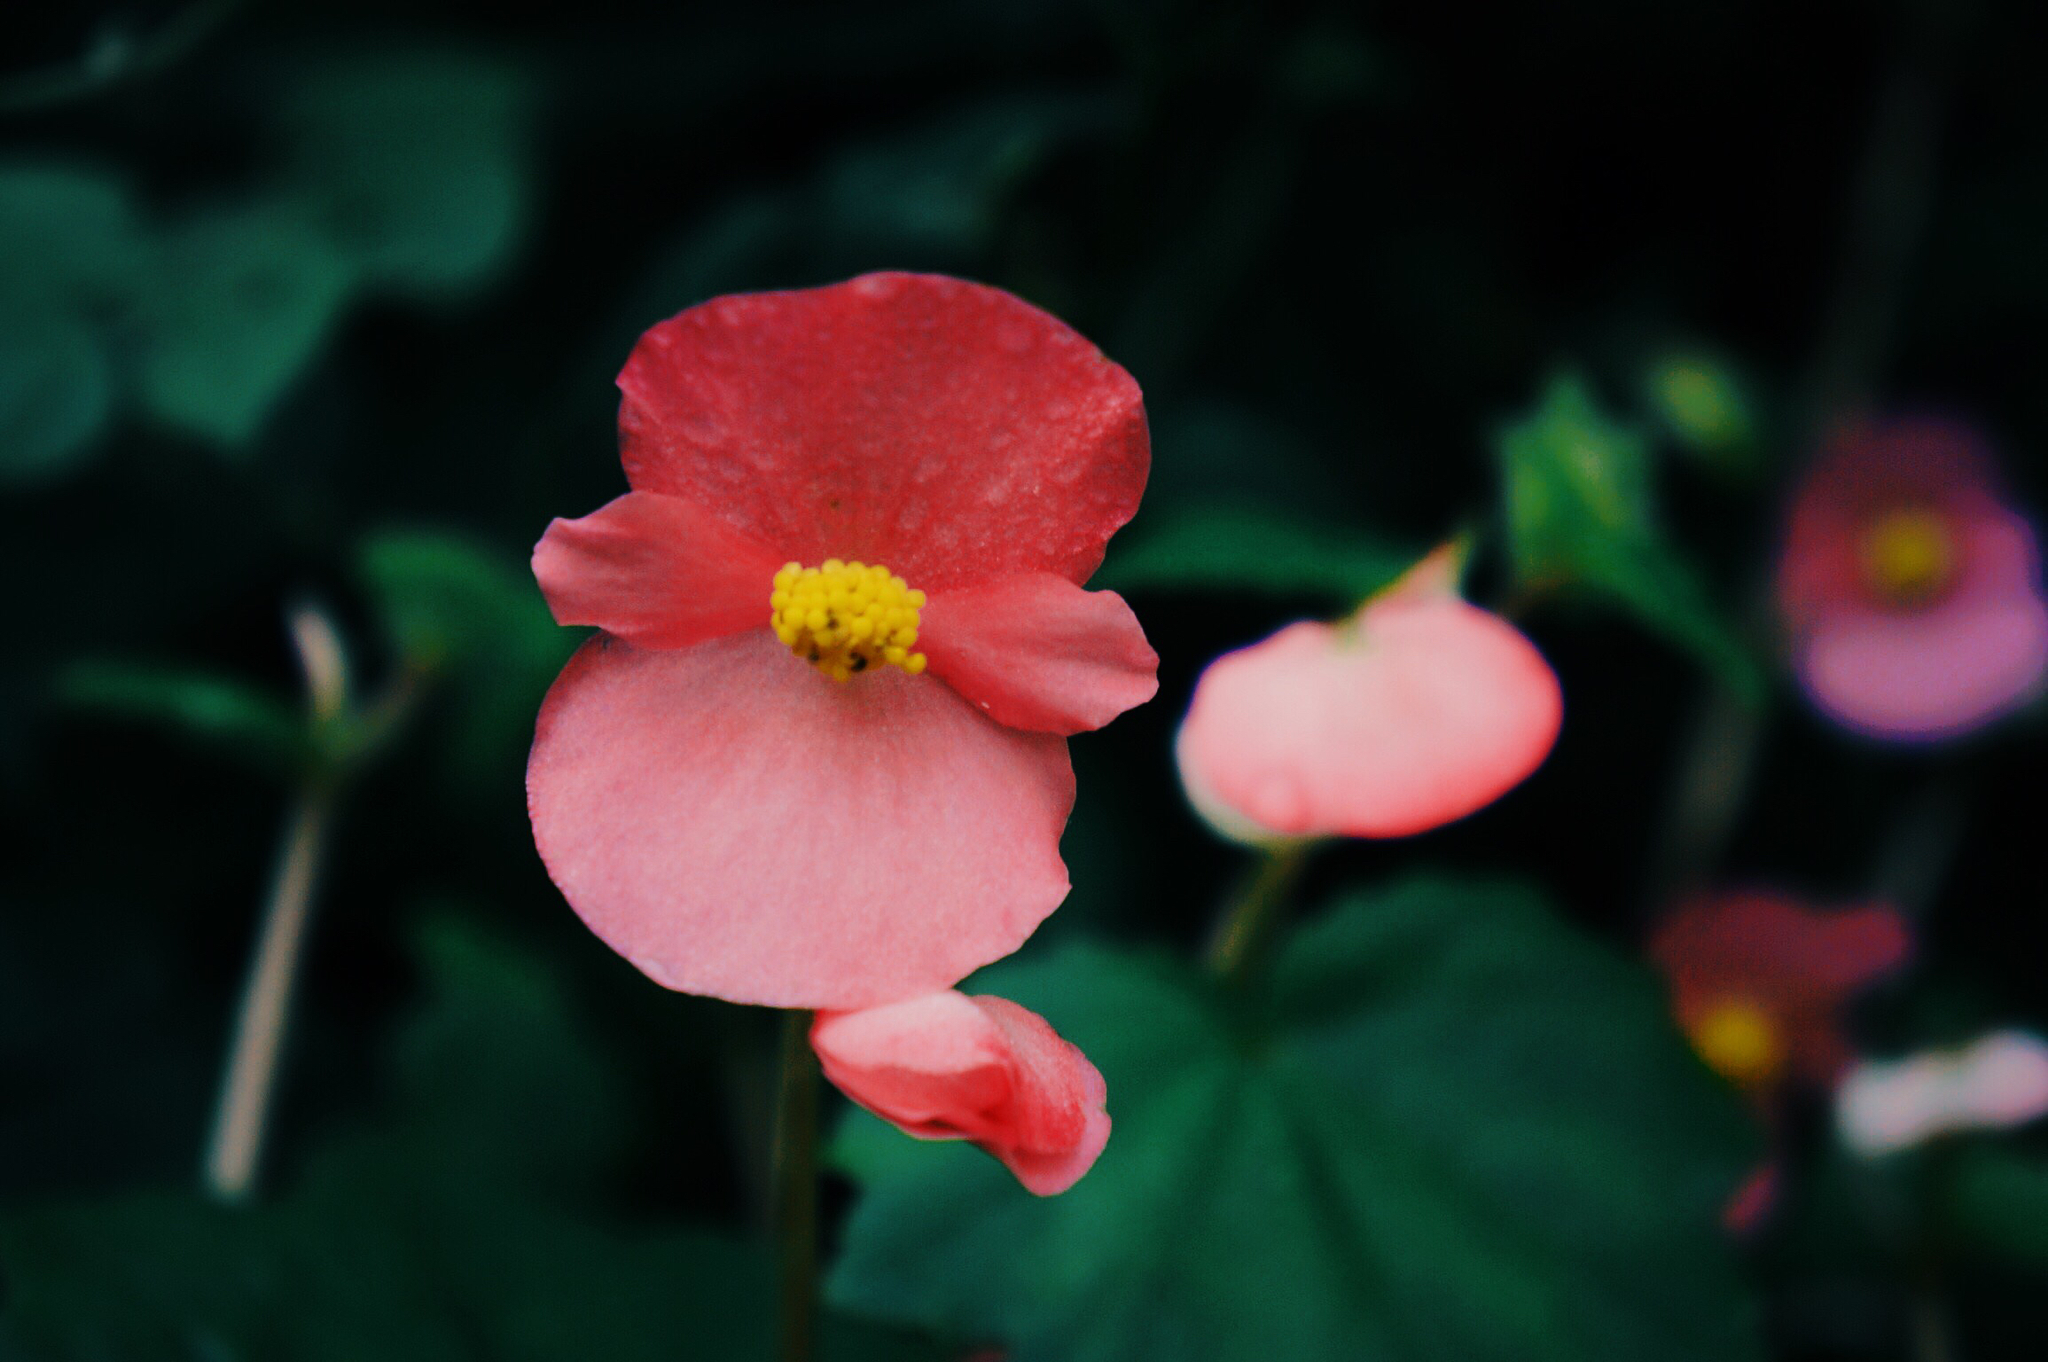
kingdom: Plantae
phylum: Tracheophyta
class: Magnoliopsida
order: Cucurbitales
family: Begoniaceae
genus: Begonia
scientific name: Begonia gracilis
